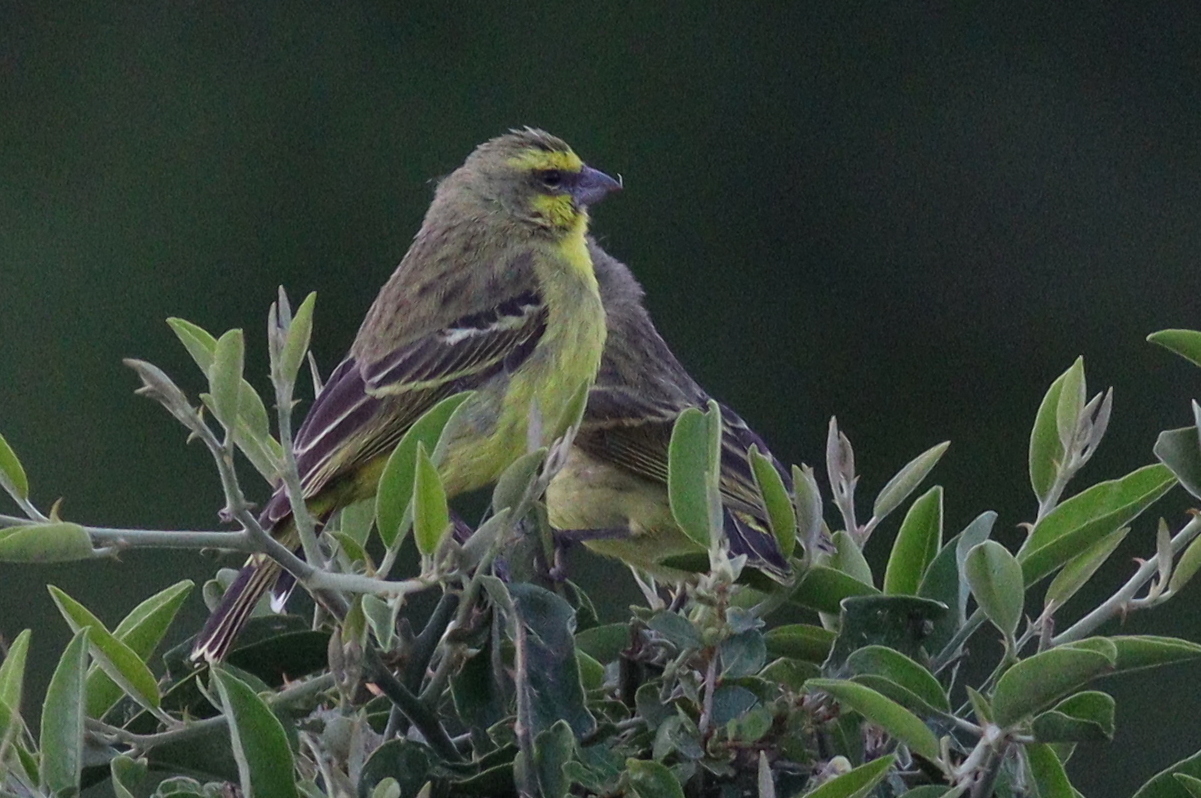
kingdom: Animalia
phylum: Chordata
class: Aves
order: Passeriformes
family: Fringillidae
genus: Crithagra
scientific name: Crithagra mozambica
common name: Yellow-fronted canary
